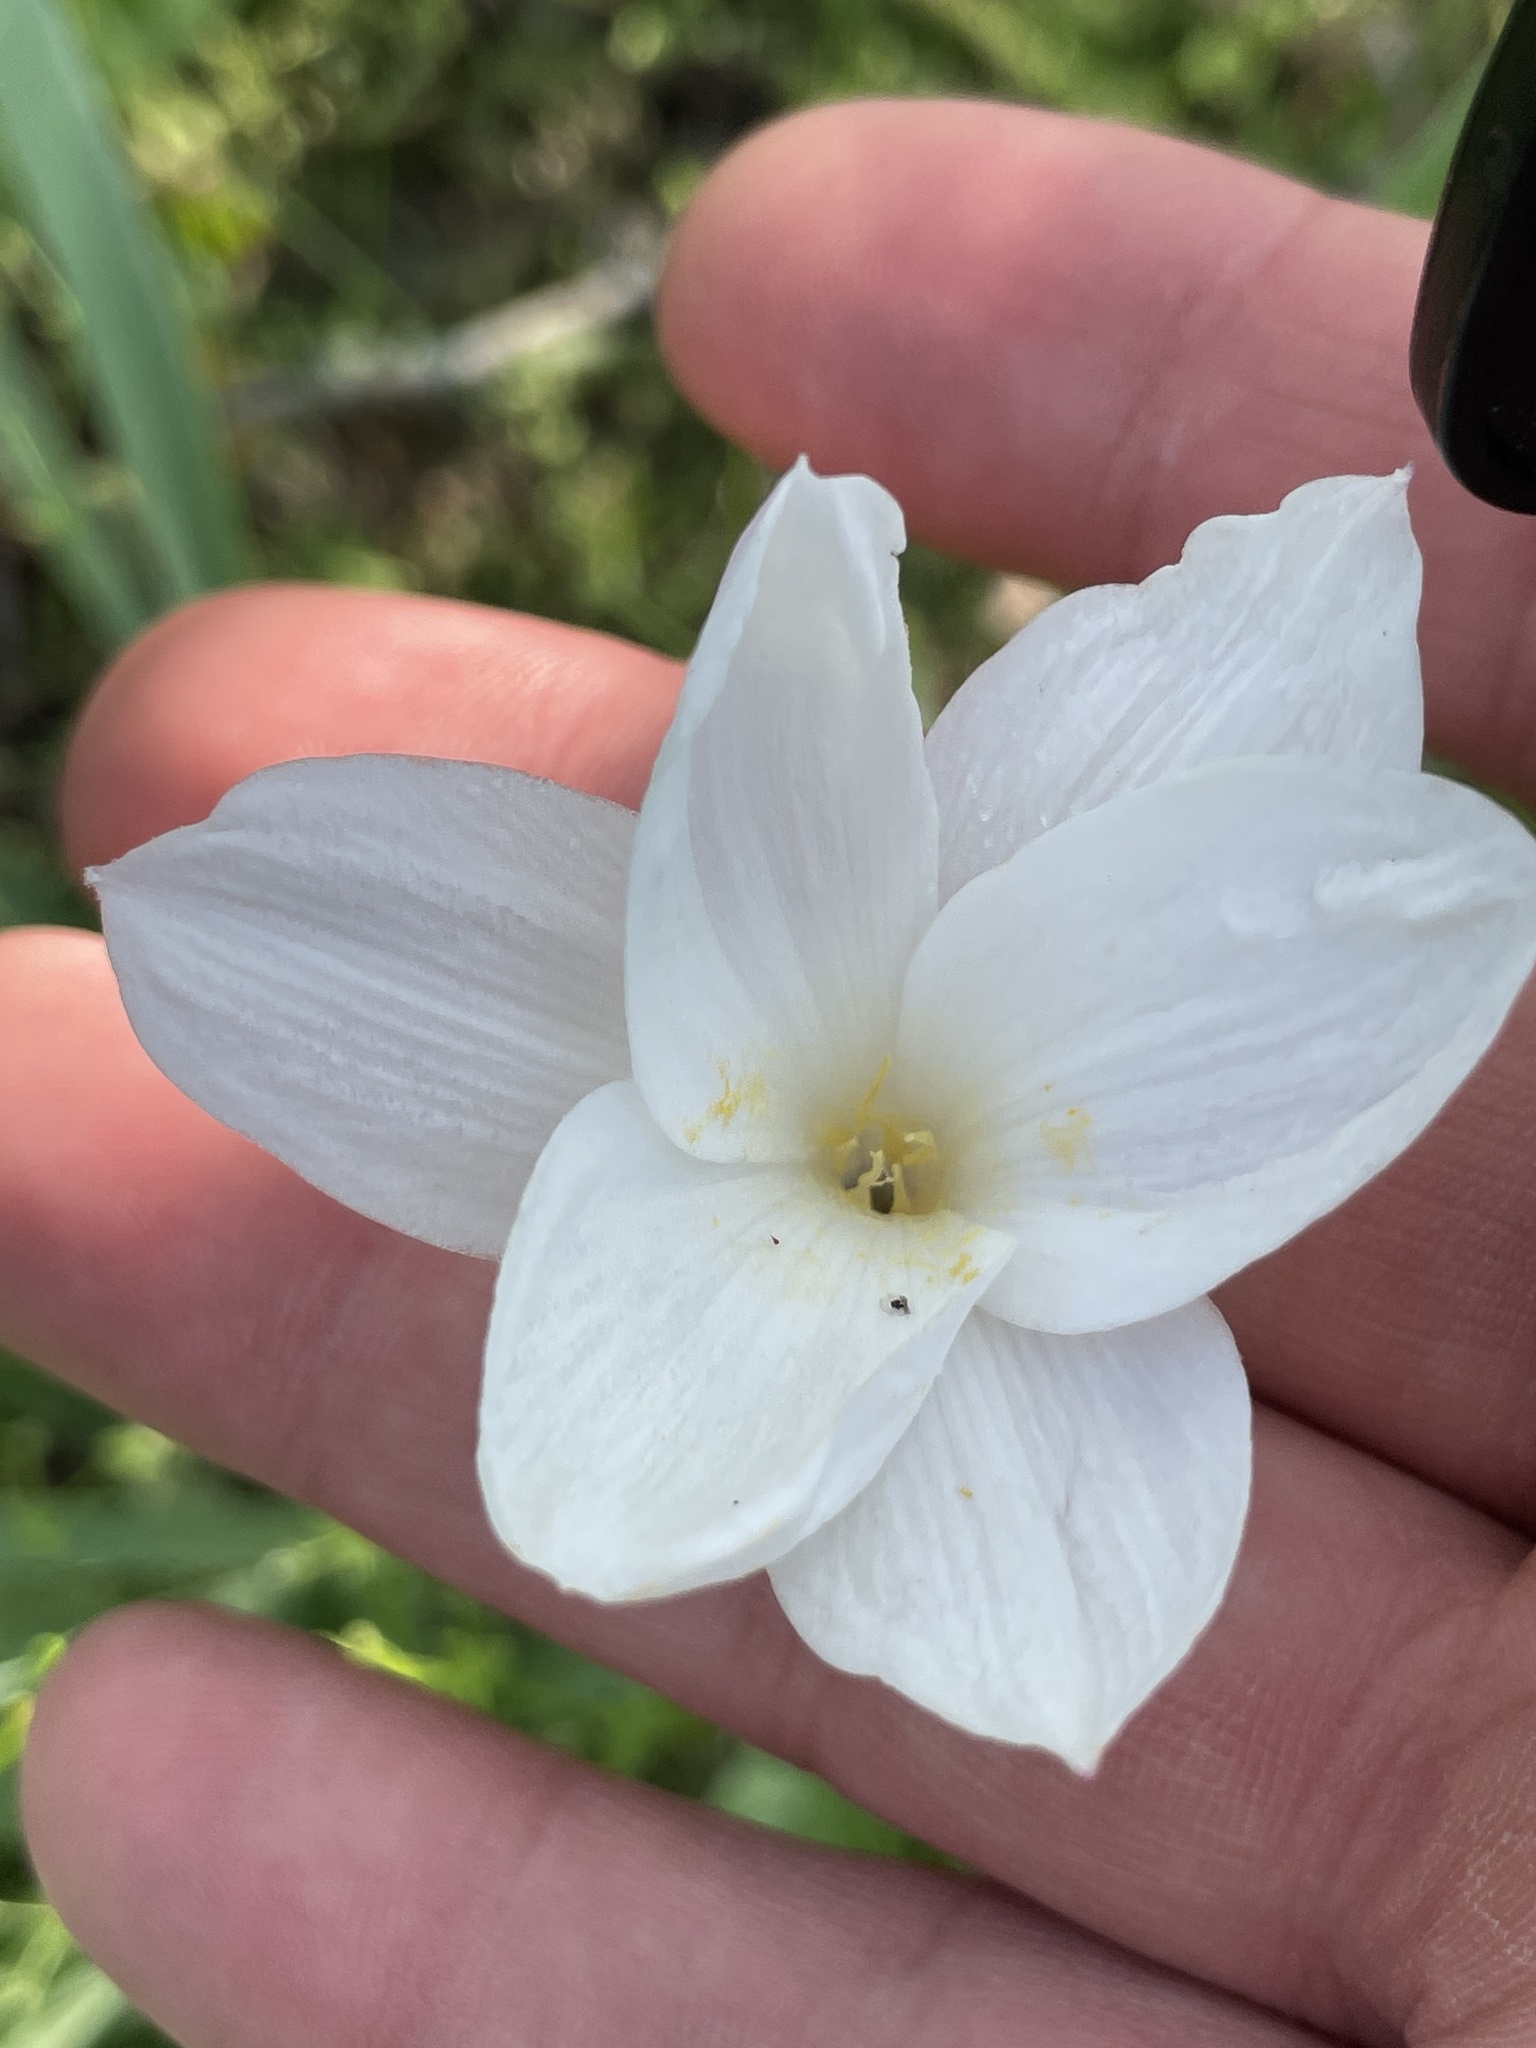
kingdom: Plantae
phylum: Tracheophyta
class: Liliopsida
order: Asparagales
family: Amaryllidaceae
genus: Zephyranthes
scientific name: Zephyranthes drummondii
